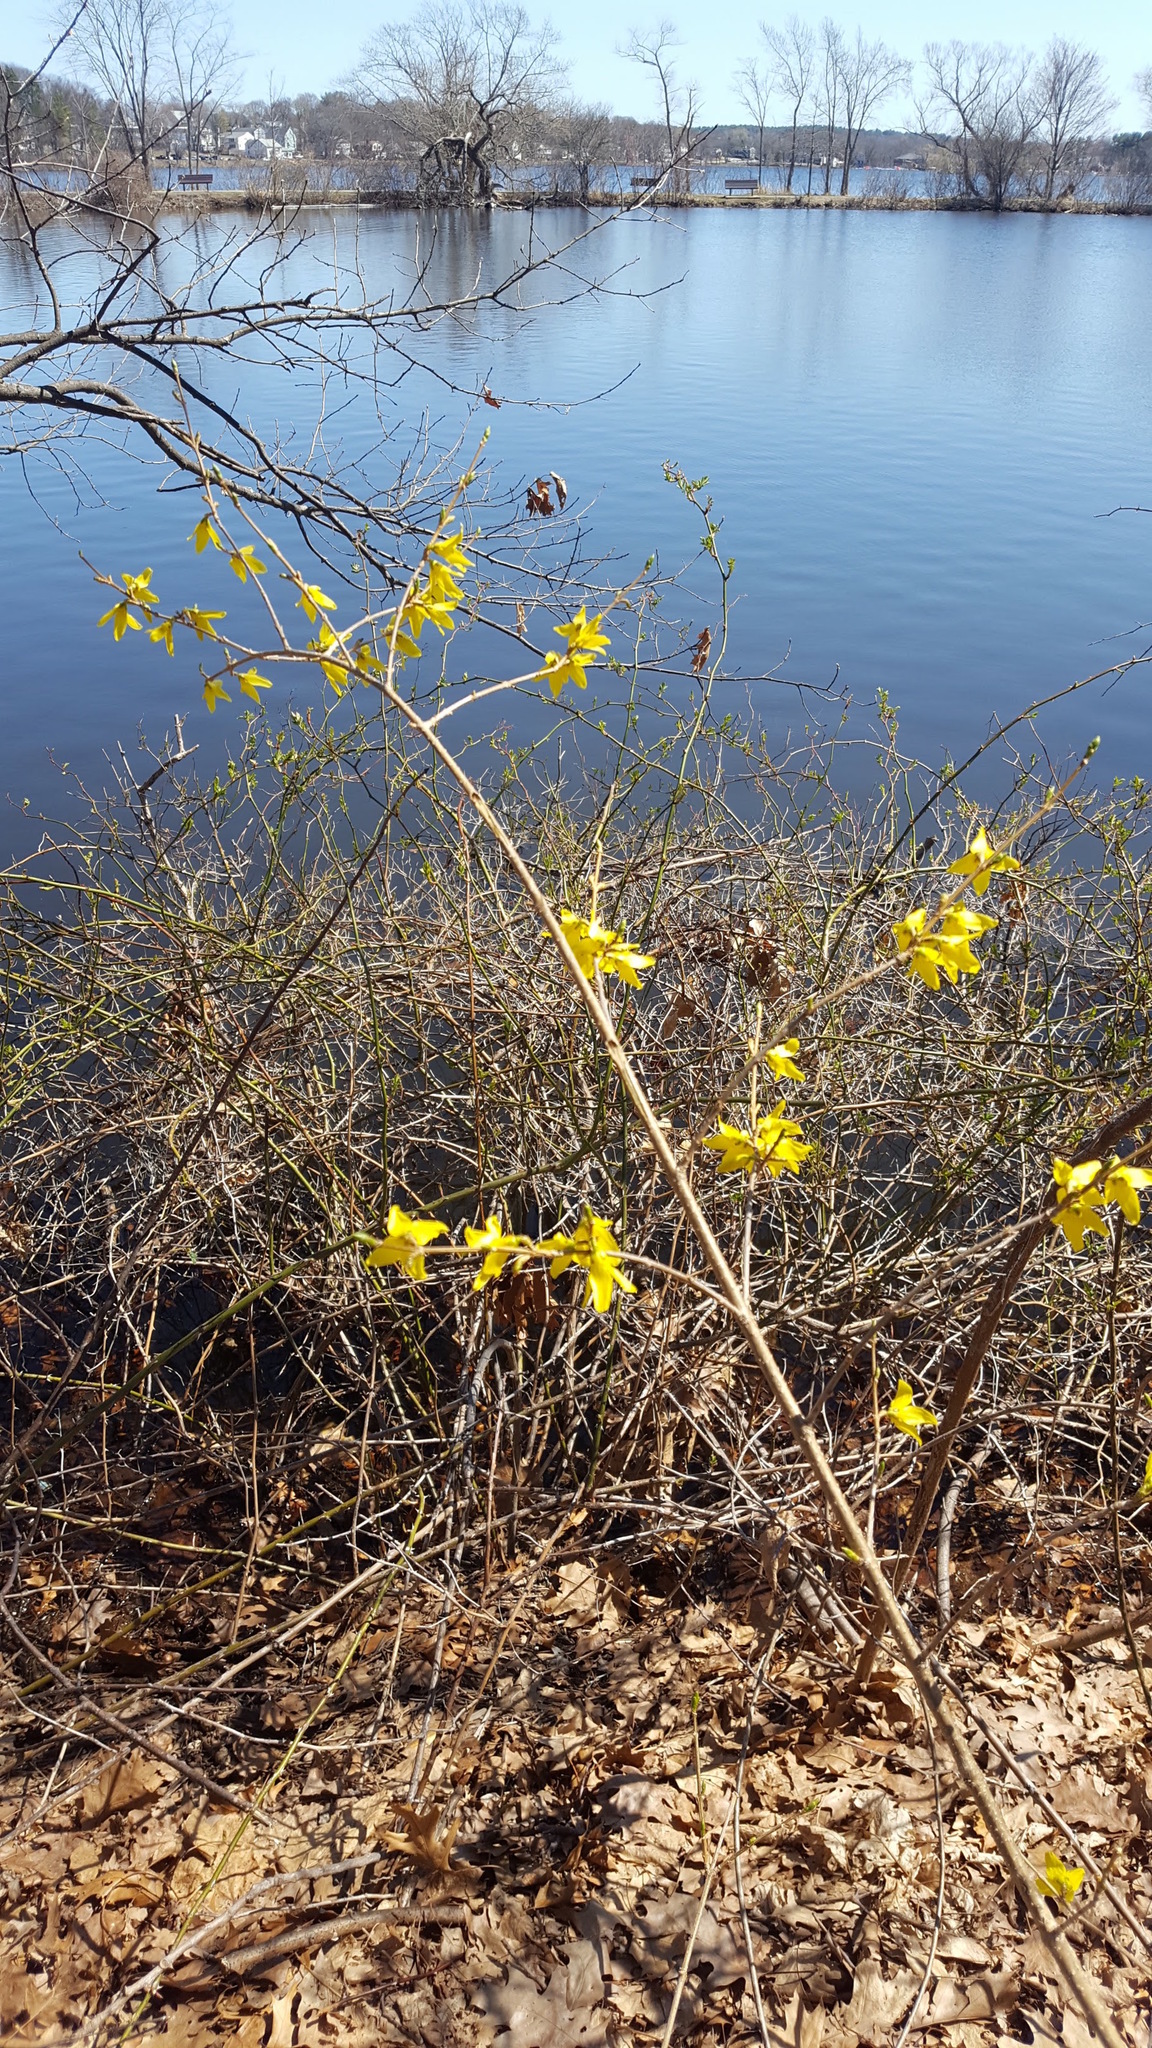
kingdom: Plantae
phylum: Tracheophyta
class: Magnoliopsida
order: Lamiales
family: Oleaceae
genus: Forsythia
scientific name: Forsythia
